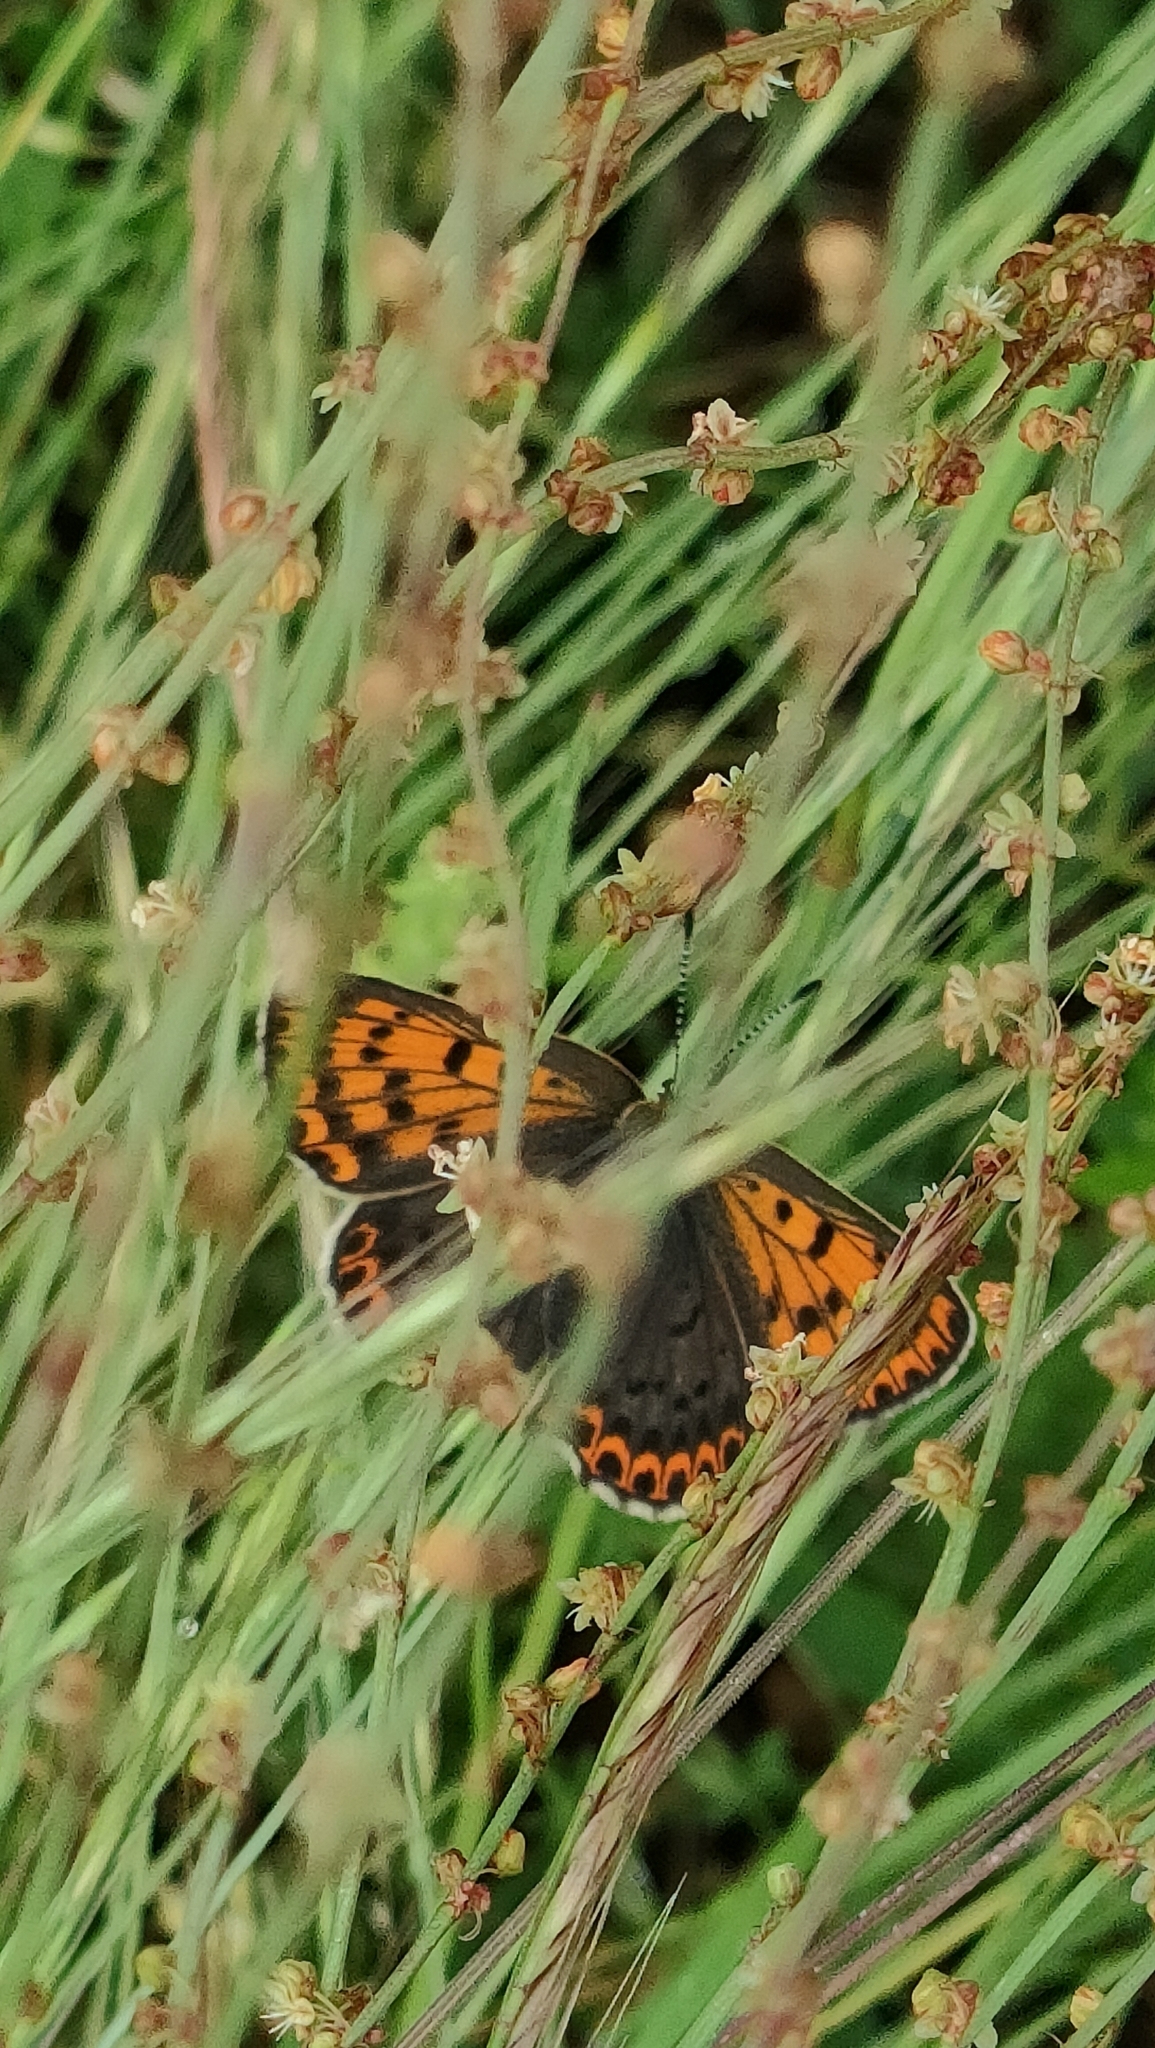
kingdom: Animalia
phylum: Arthropoda
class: Insecta
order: Lepidoptera
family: Lycaenidae
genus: Loweia
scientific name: Loweia tityrus
